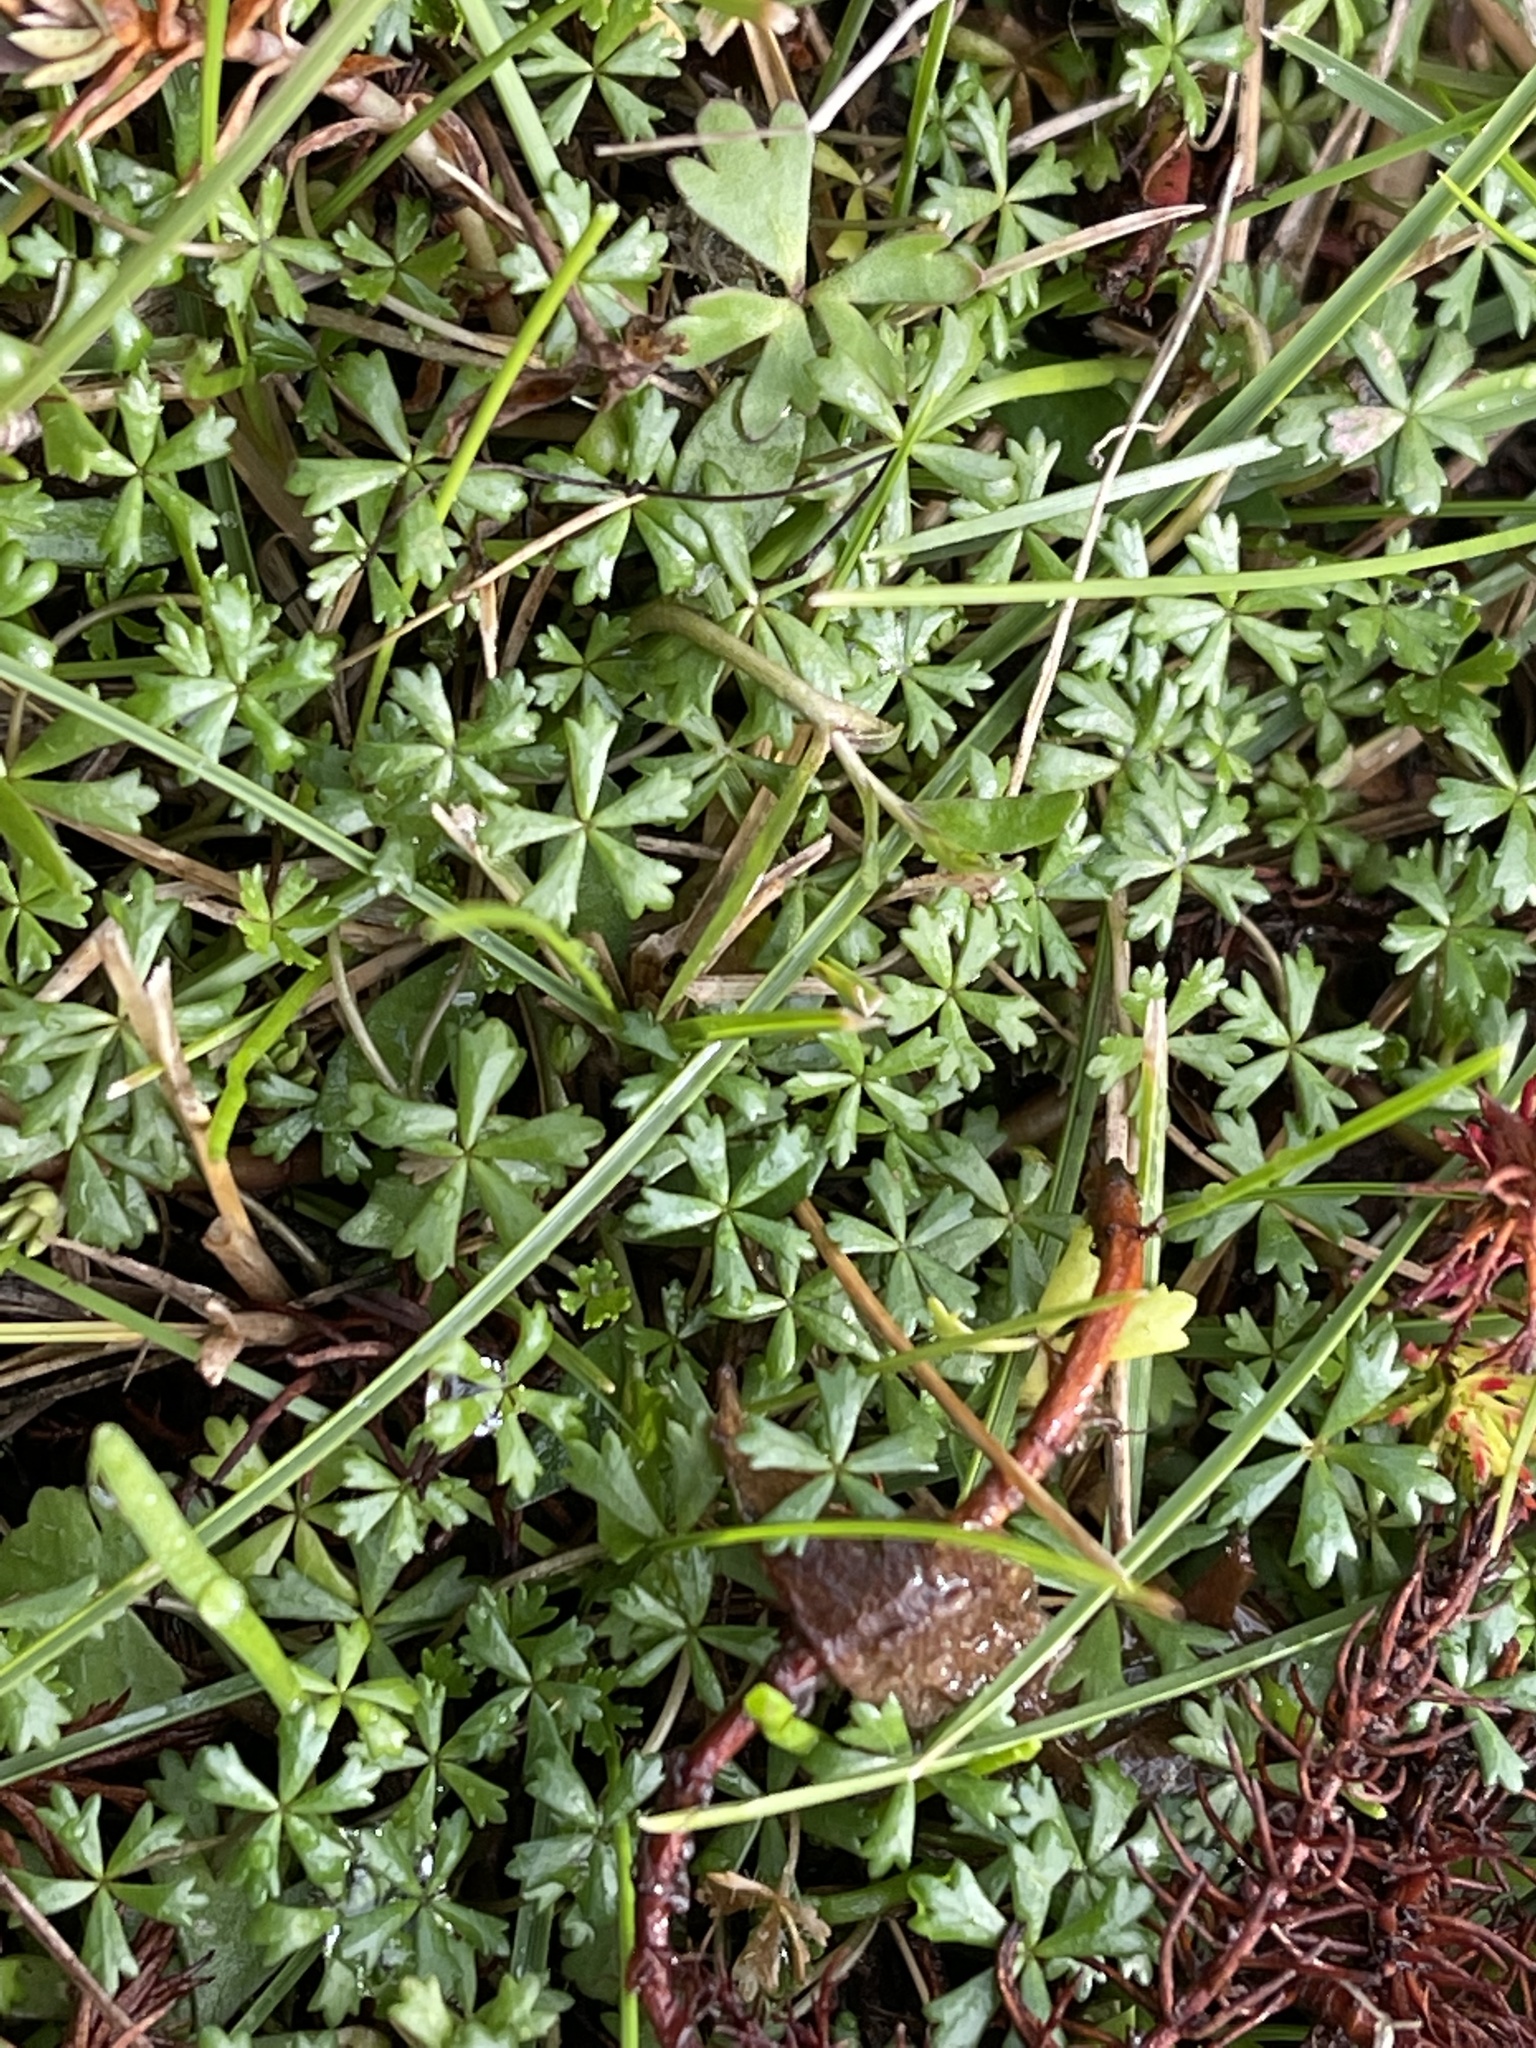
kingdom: Plantae
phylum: Tracheophyta
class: Magnoliopsida
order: Apiales
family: Araliaceae
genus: Hydrocotyle
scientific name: Hydrocotyle muscosa
